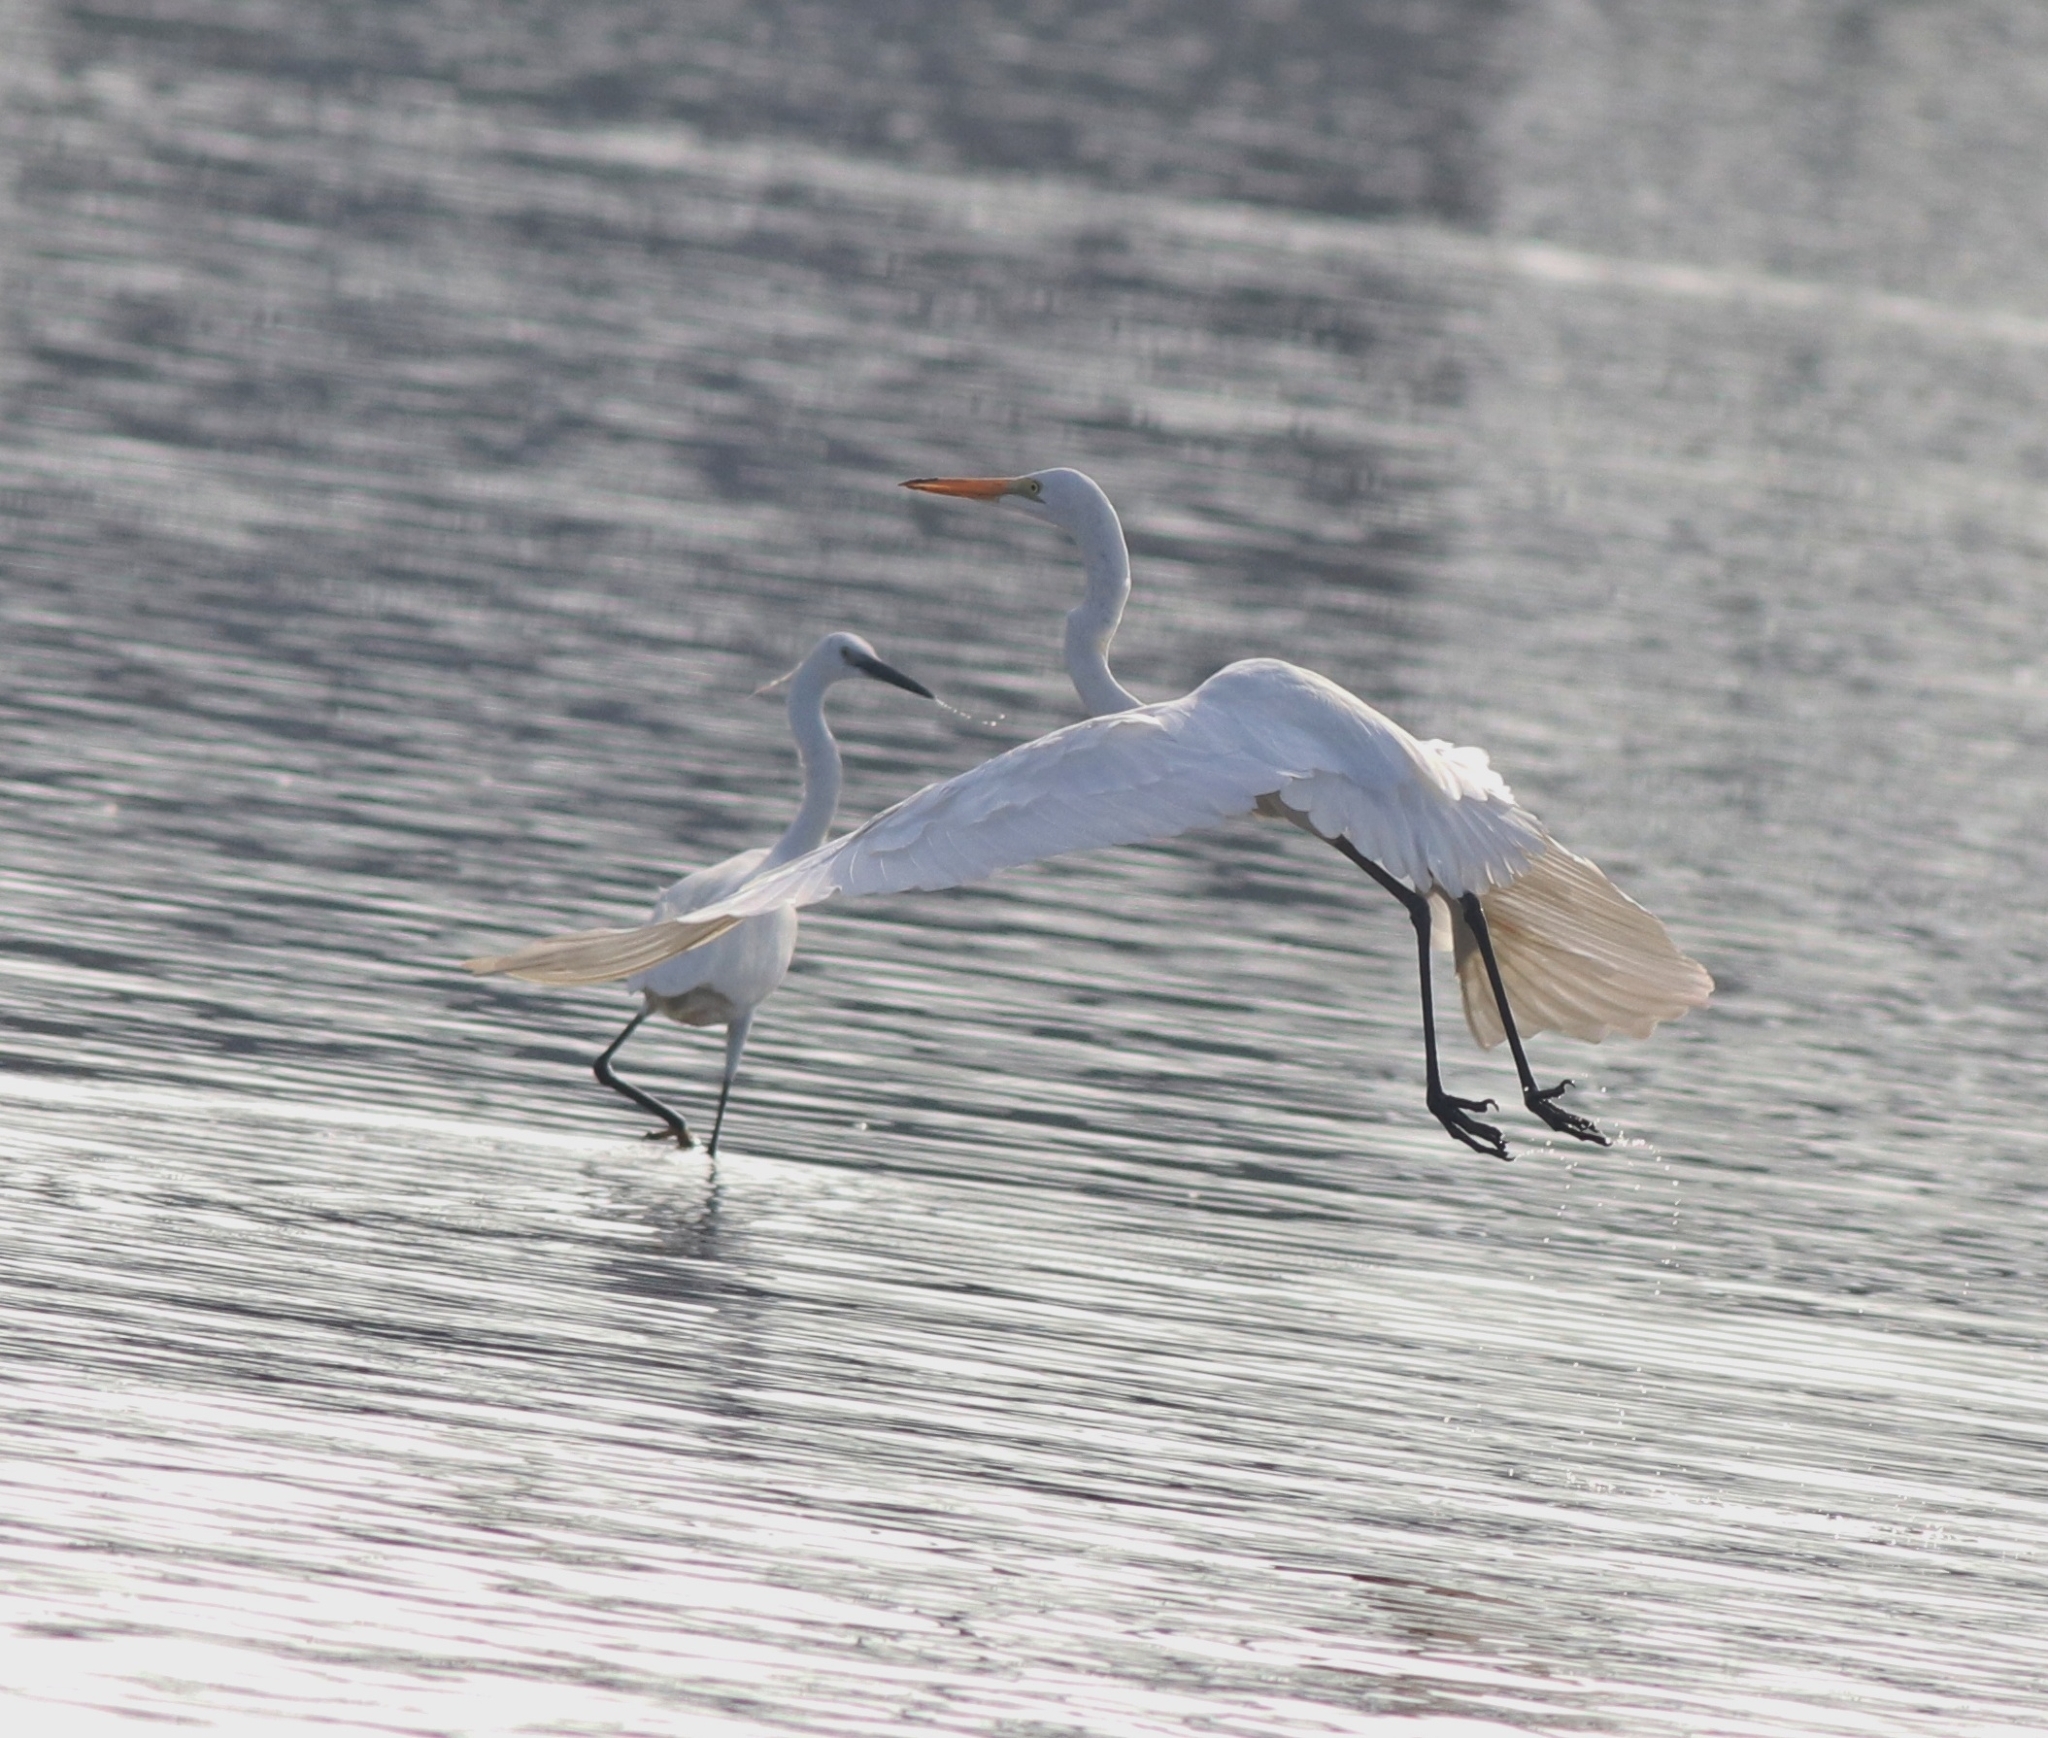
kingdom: Animalia
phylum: Chordata
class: Aves
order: Pelecaniformes
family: Ardeidae
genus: Ardea
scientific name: Ardea alba
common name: Great egret
